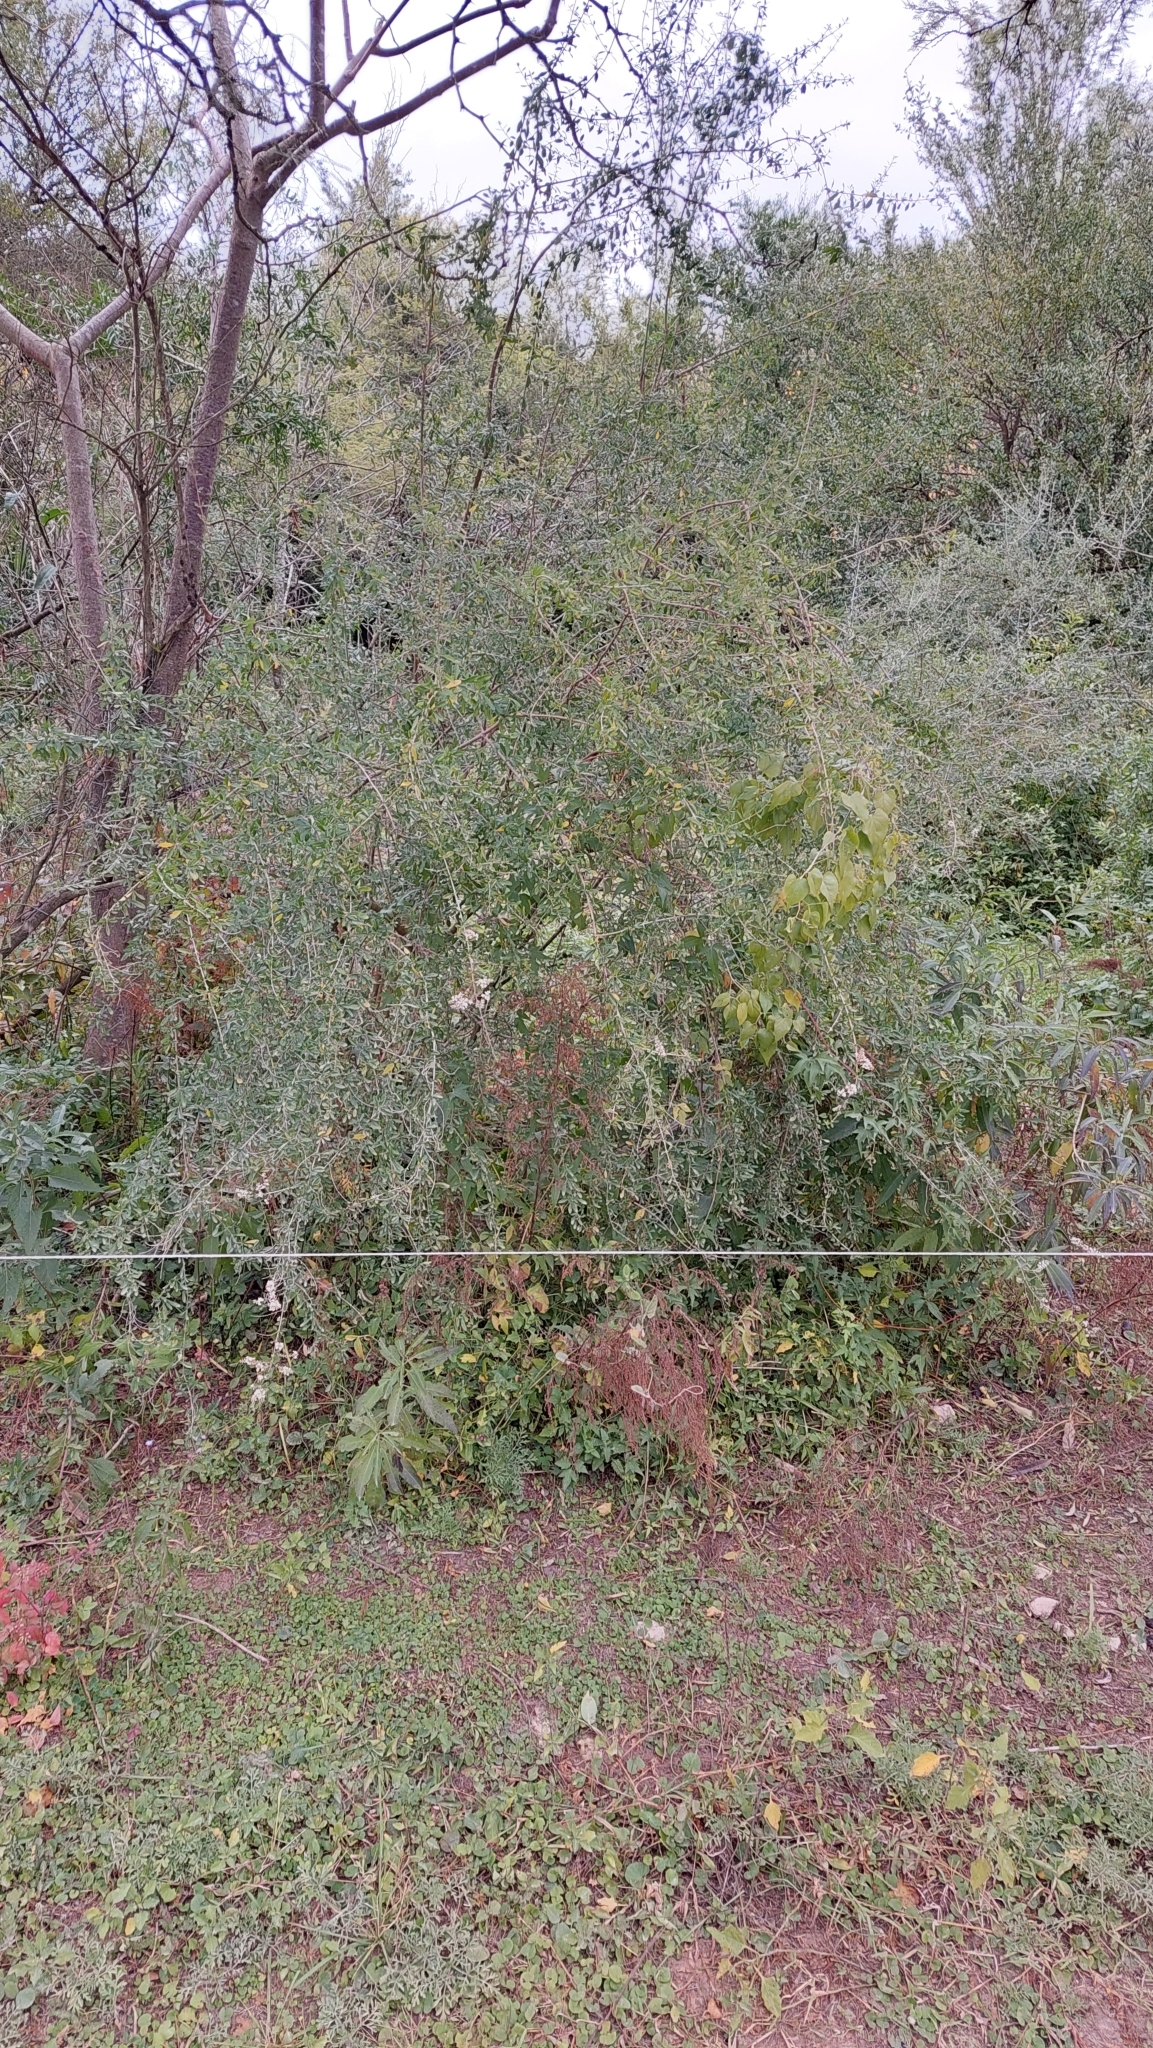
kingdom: Plantae
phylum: Tracheophyta
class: Magnoliopsida
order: Lamiales
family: Verbenaceae
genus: Aloysia
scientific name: Aloysia gratissima
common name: Common bee-brush
